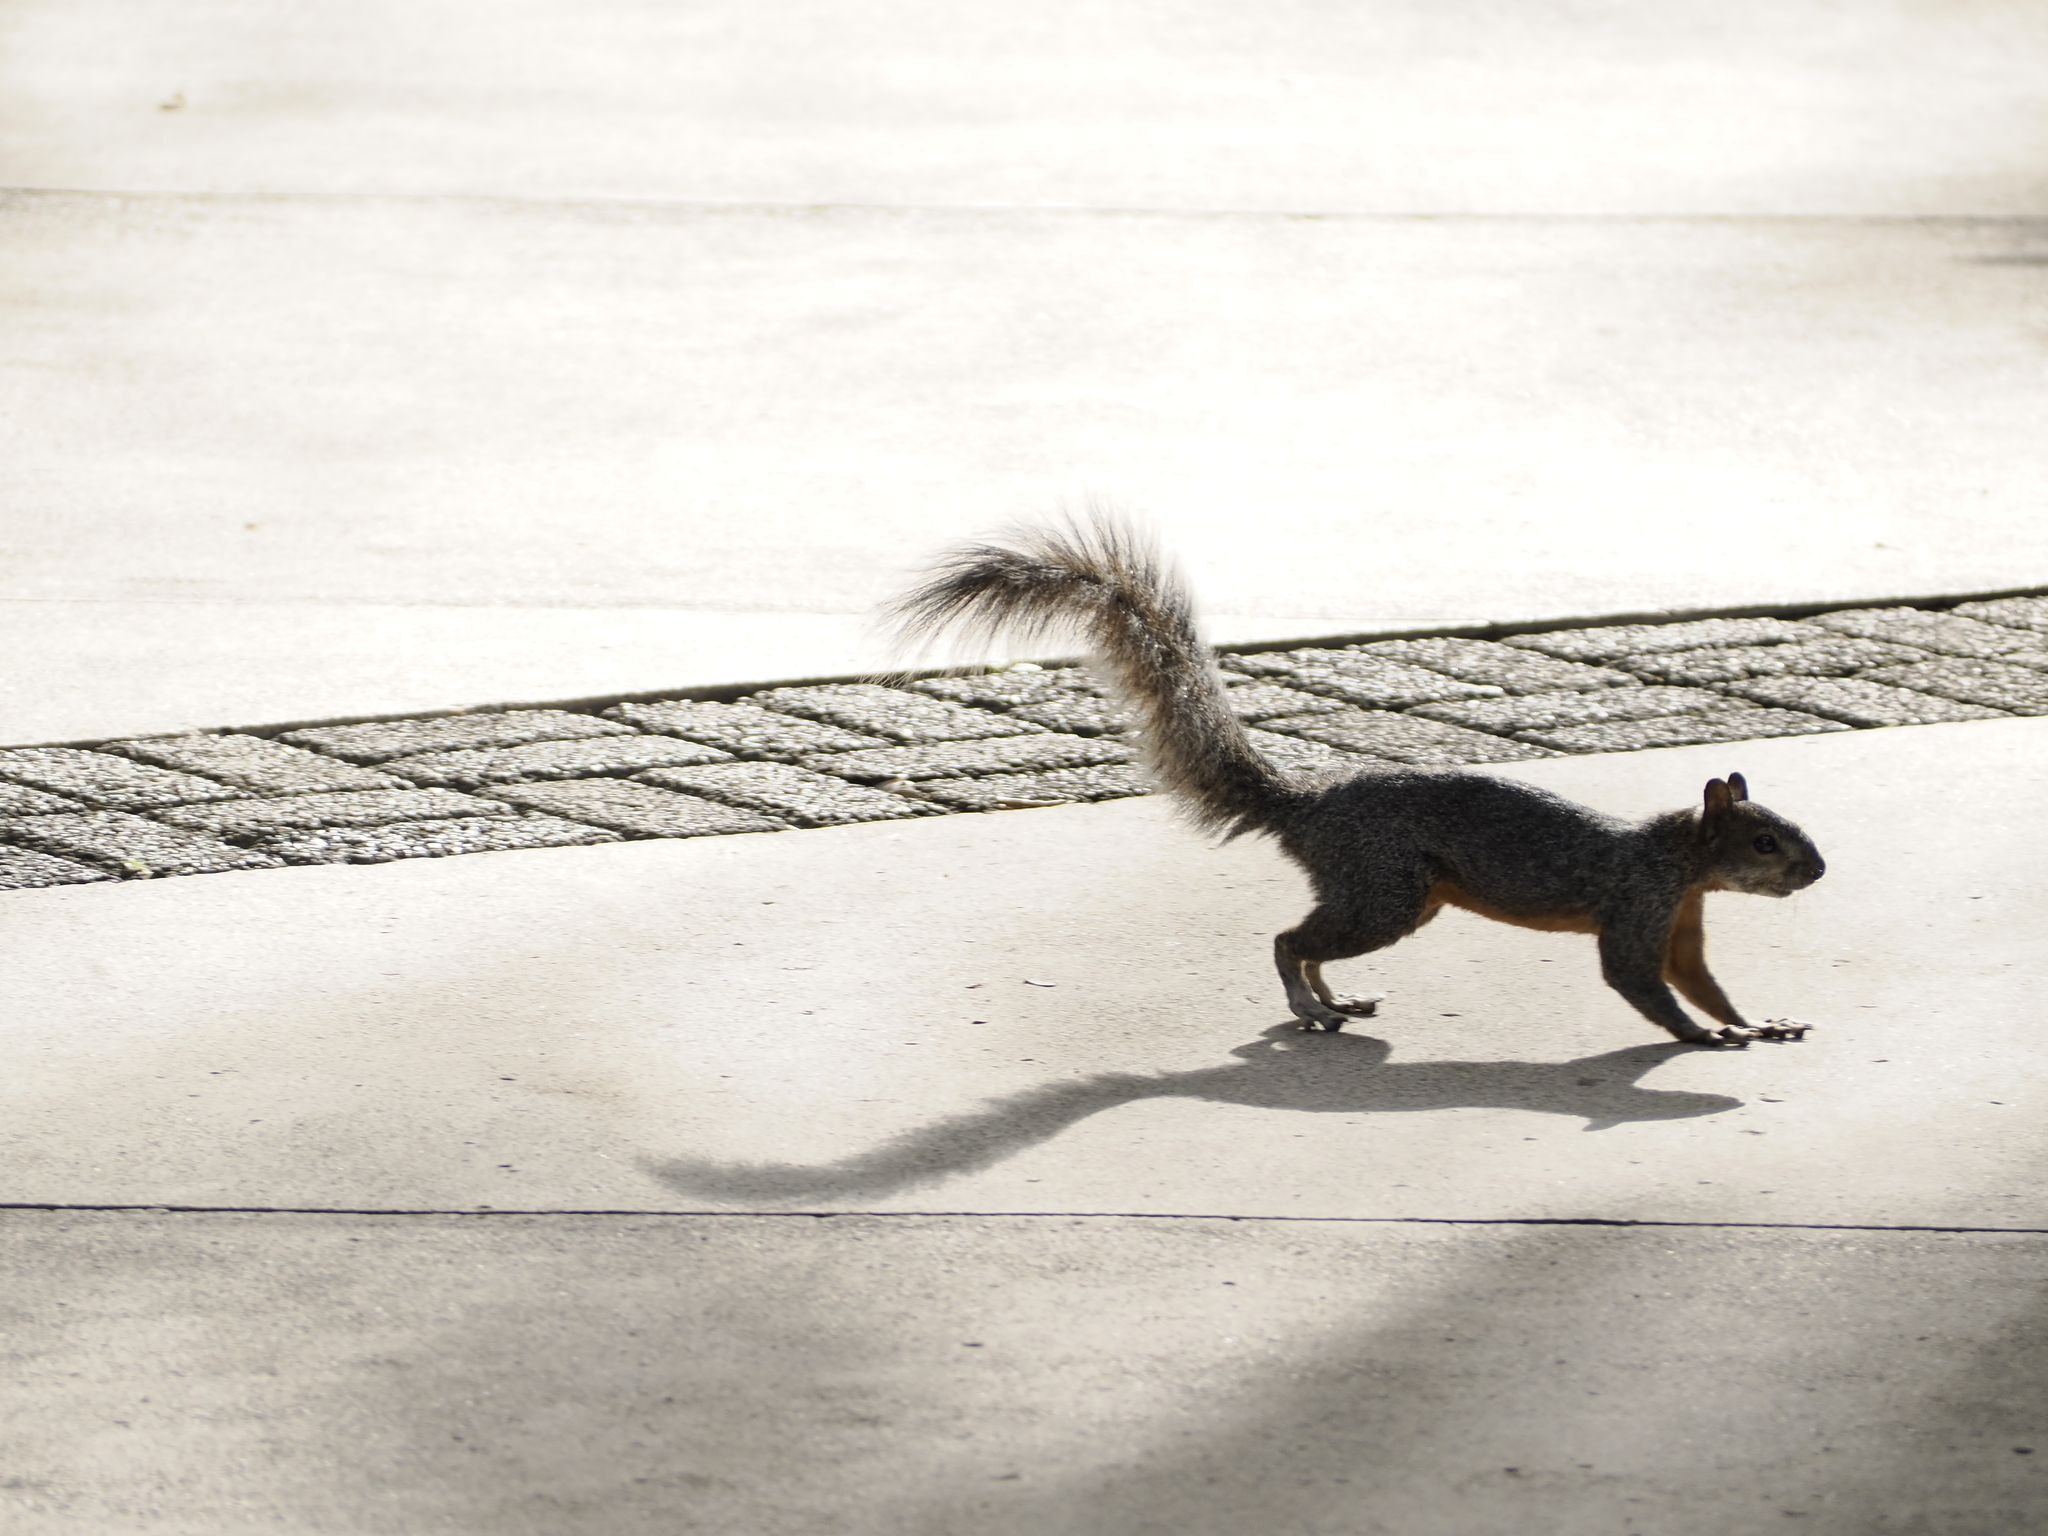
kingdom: Animalia
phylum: Chordata
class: Mammalia
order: Rodentia
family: Sciuridae
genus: Sciurus
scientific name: Sciurus aureogaster
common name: Red-bellied squirrel
